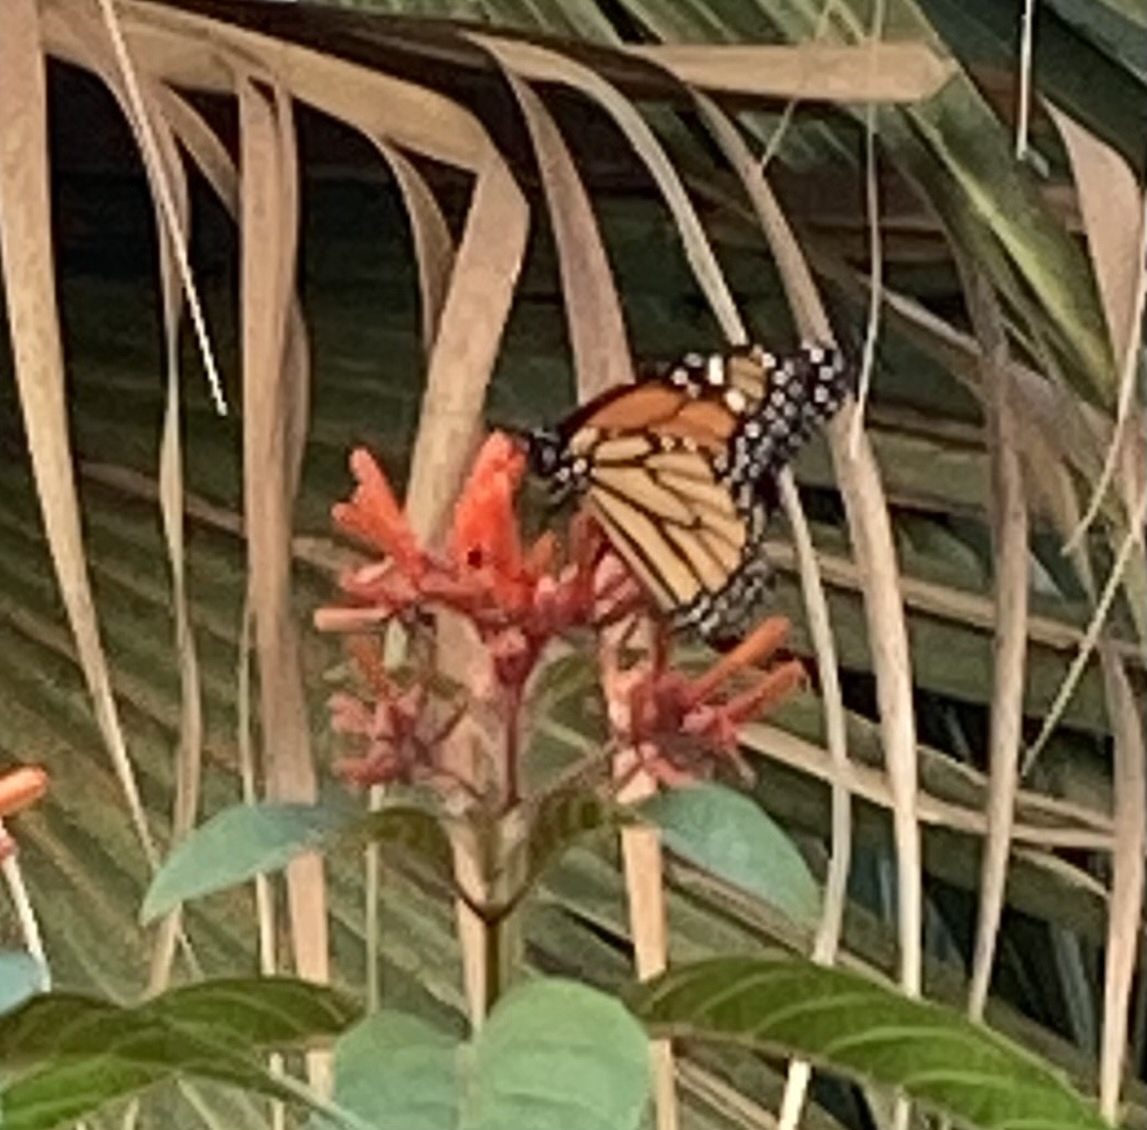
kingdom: Animalia
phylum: Arthropoda
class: Insecta
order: Lepidoptera
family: Nymphalidae
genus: Danaus
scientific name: Danaus plexippus
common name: Monarch
